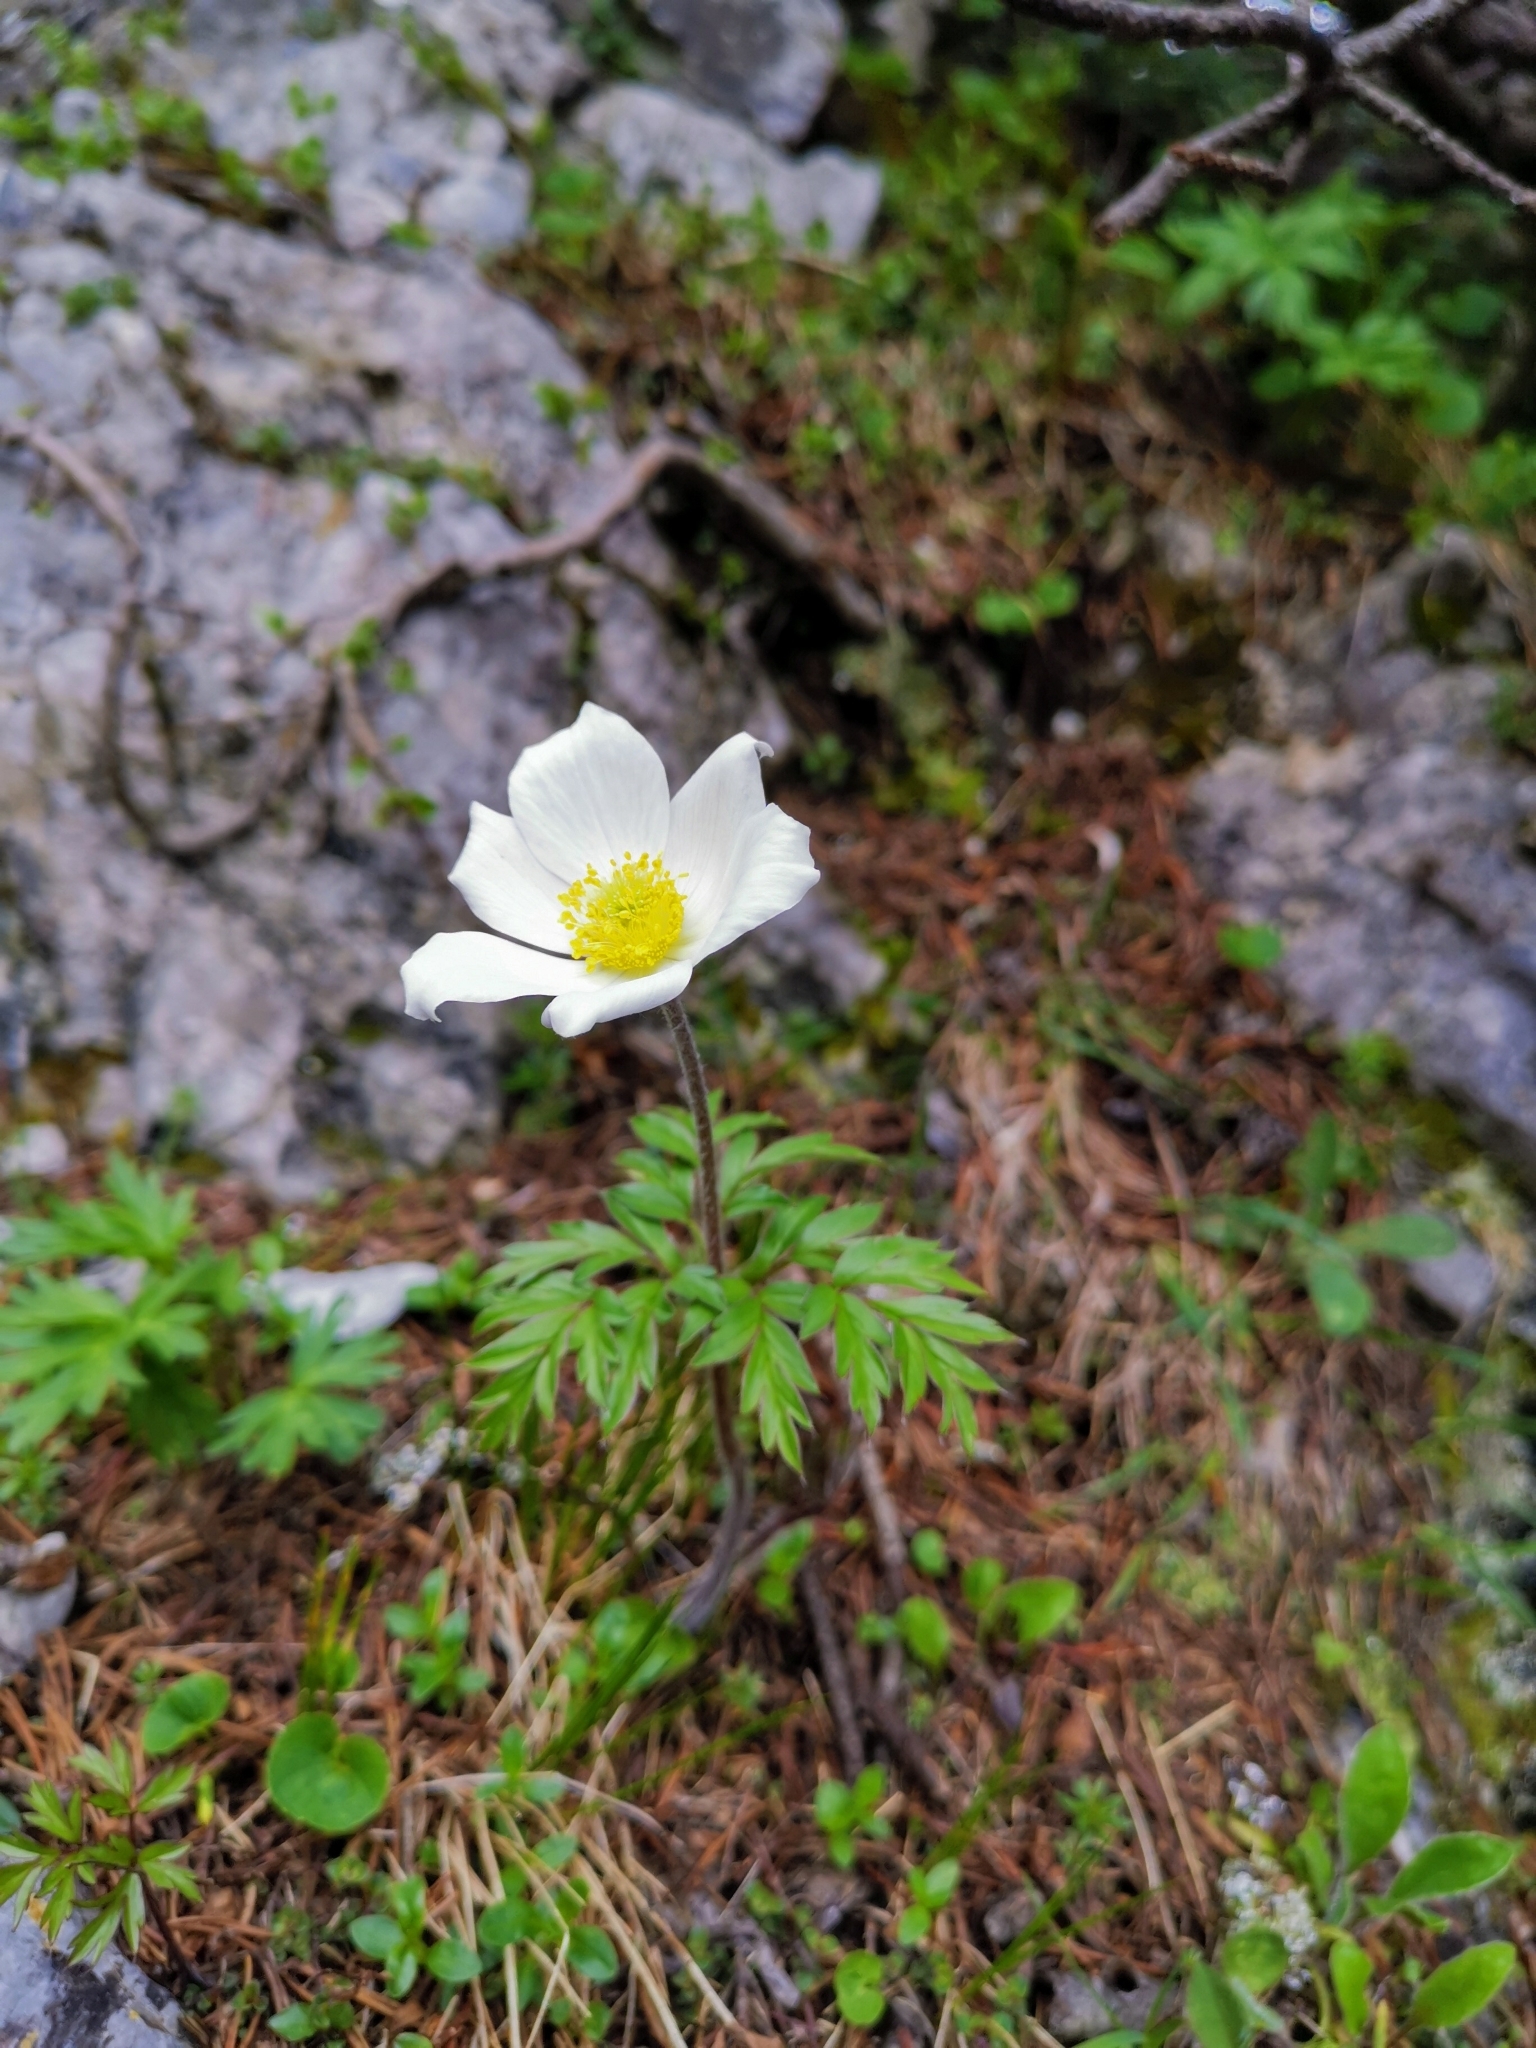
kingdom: Plantae
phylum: Tracheophyta
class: Magnoliopsida
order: Ranunculales
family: Ranunculaceae
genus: Pulsatilla
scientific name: Pulsatilla alpina
